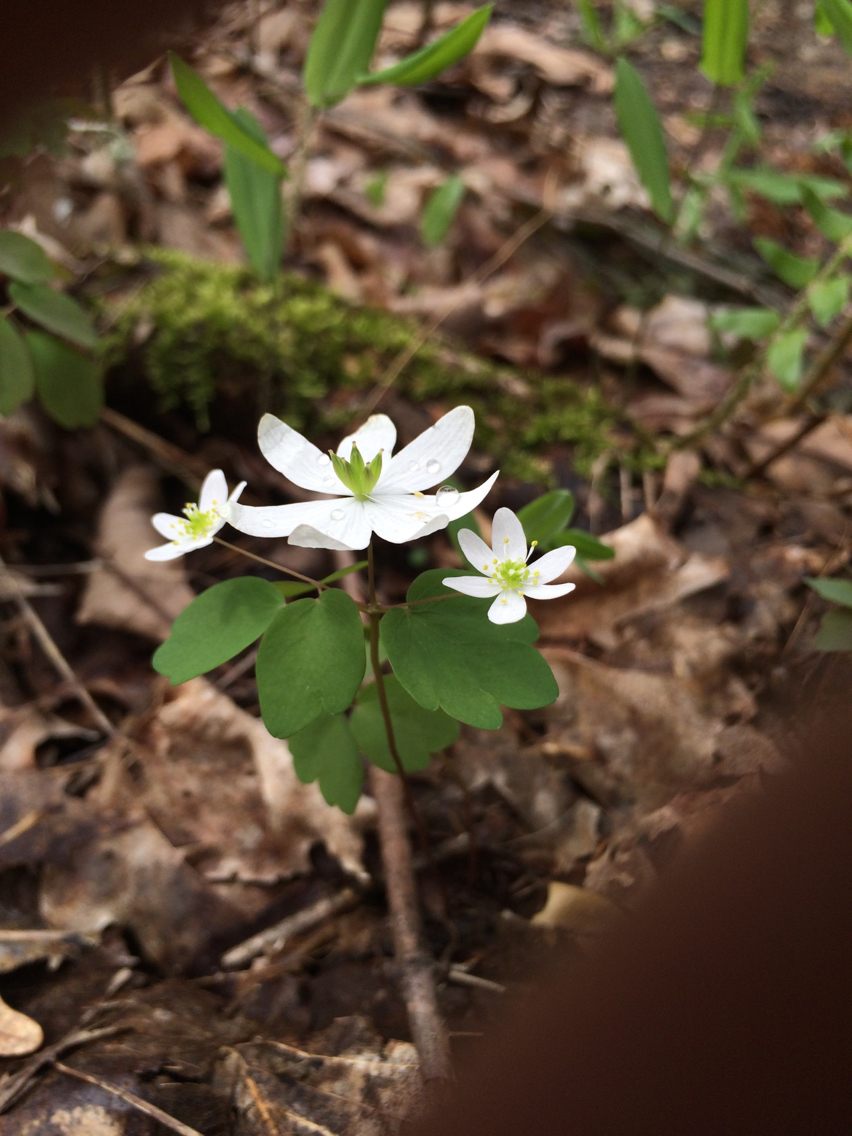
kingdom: Plantae
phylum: Tracheophyta
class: Magnoliopsida
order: Ranunculales
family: Ranunculaceae
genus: Thalictrum
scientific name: Thalictrum thalictroides
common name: Rue-anemone
